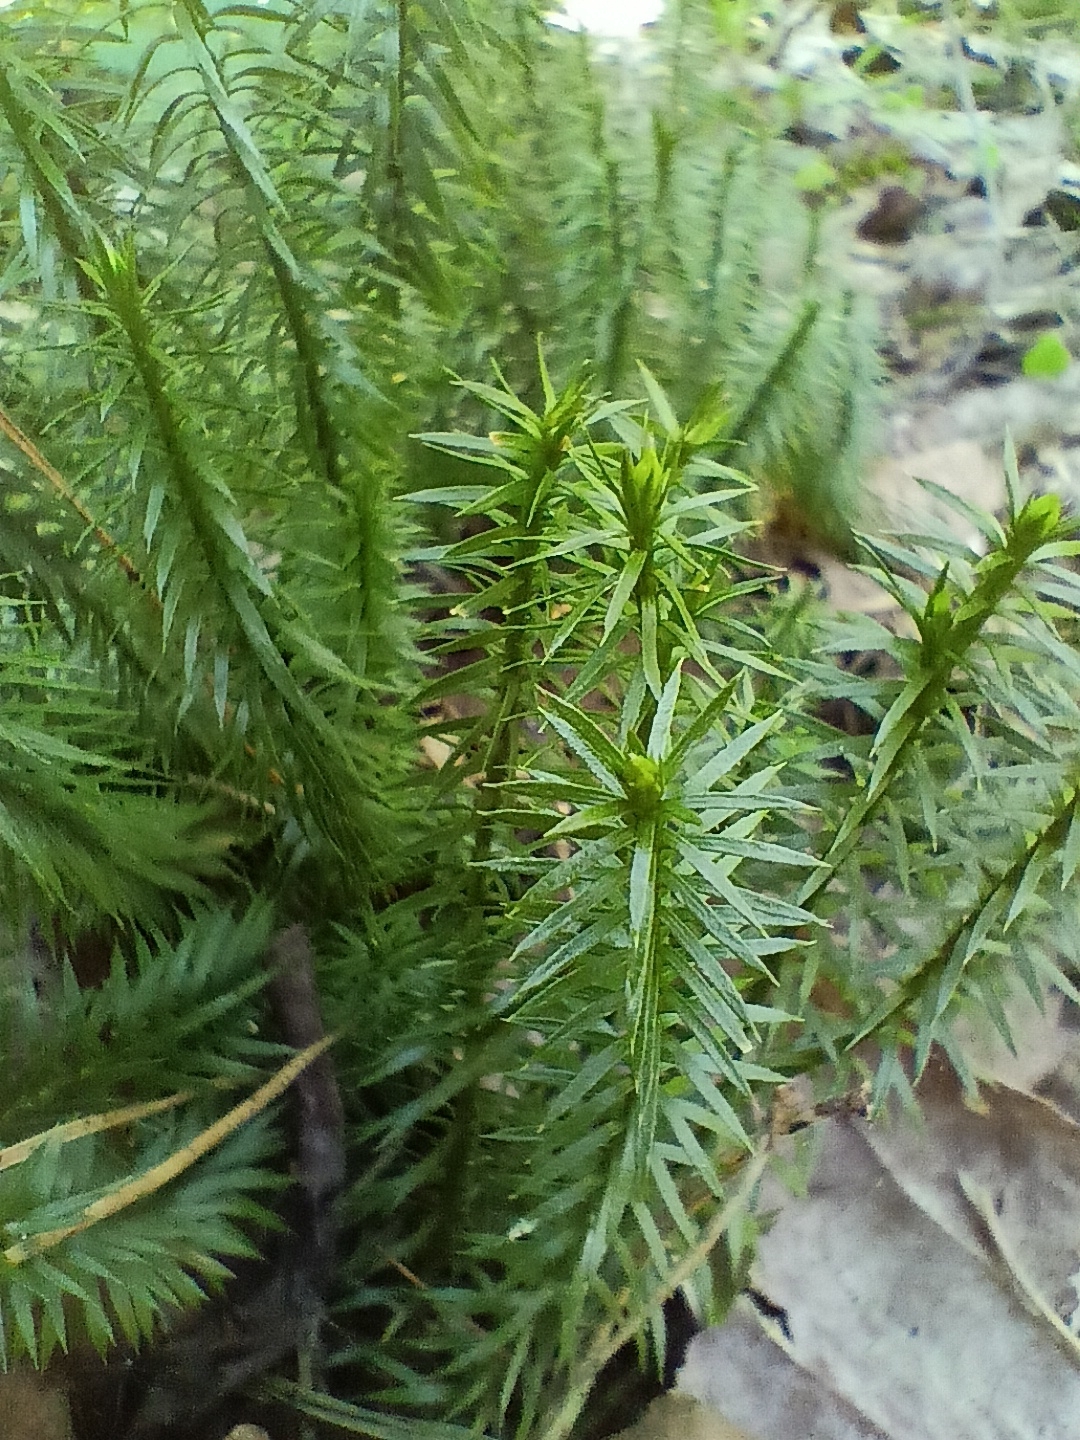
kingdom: Plantae
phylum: Tracheophyta
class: Lycopodiopsida
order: Lycopodiales
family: Lycopodiaceae
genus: Spinulum
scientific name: Spinulum annotinum
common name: Interrupted club-moss
